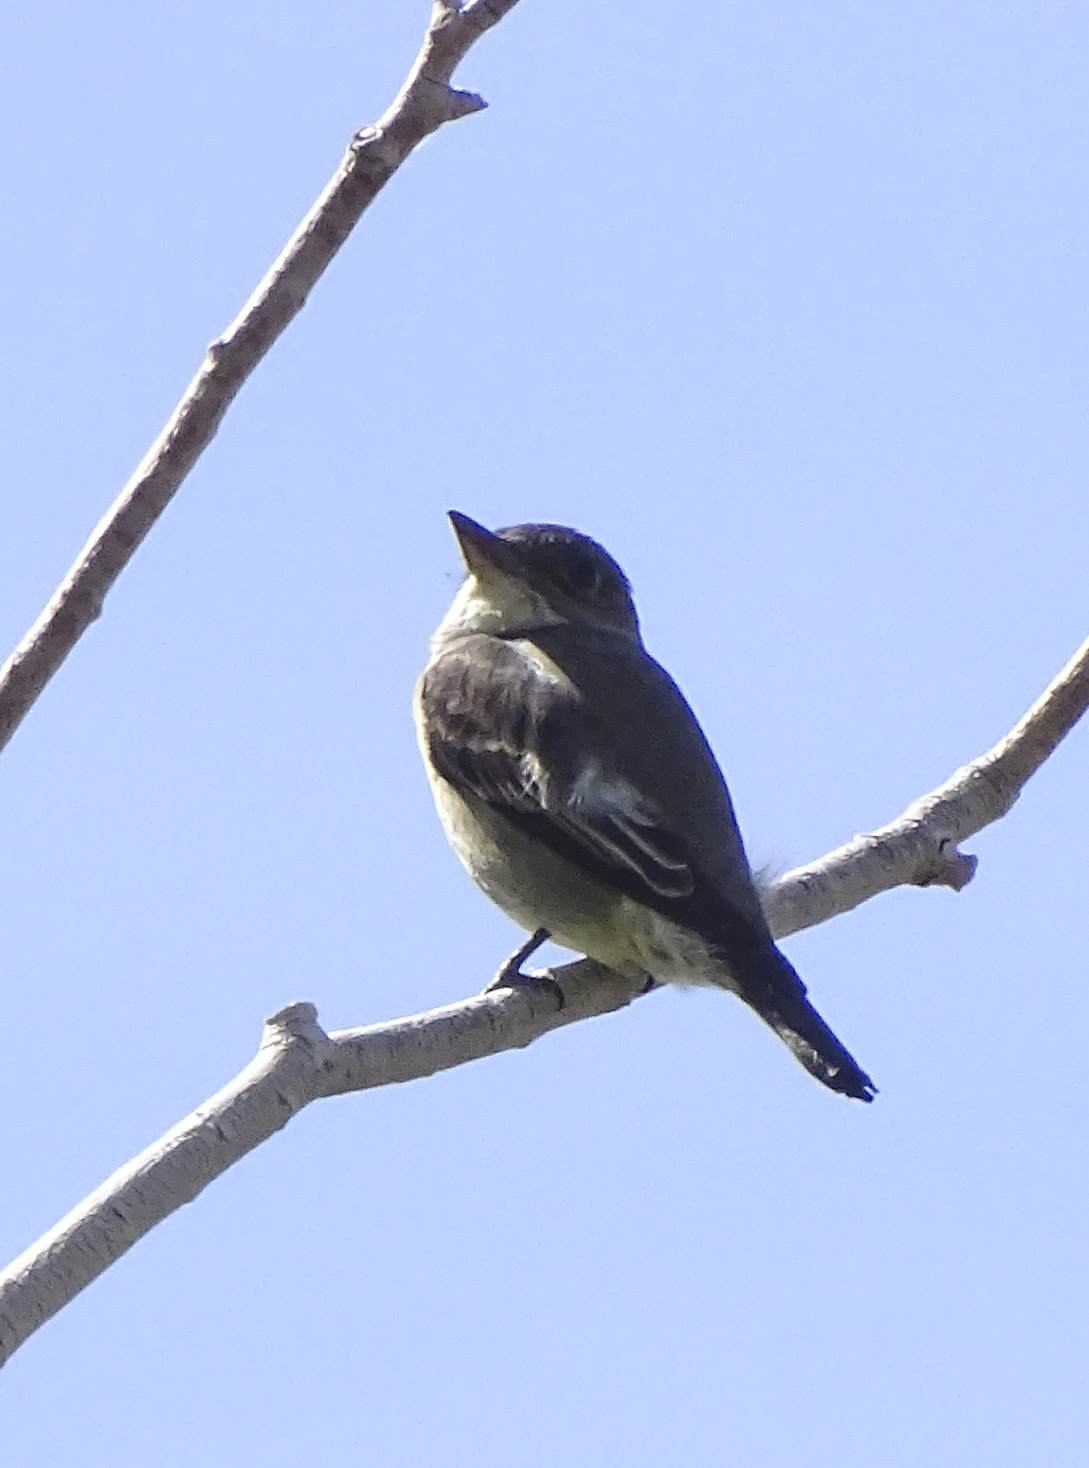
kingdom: Animalia
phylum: Chordata
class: Aves
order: Passeriformes
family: Tyrannidae
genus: Contopus
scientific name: Contopus cooperi
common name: Olive-sided flycatcher
